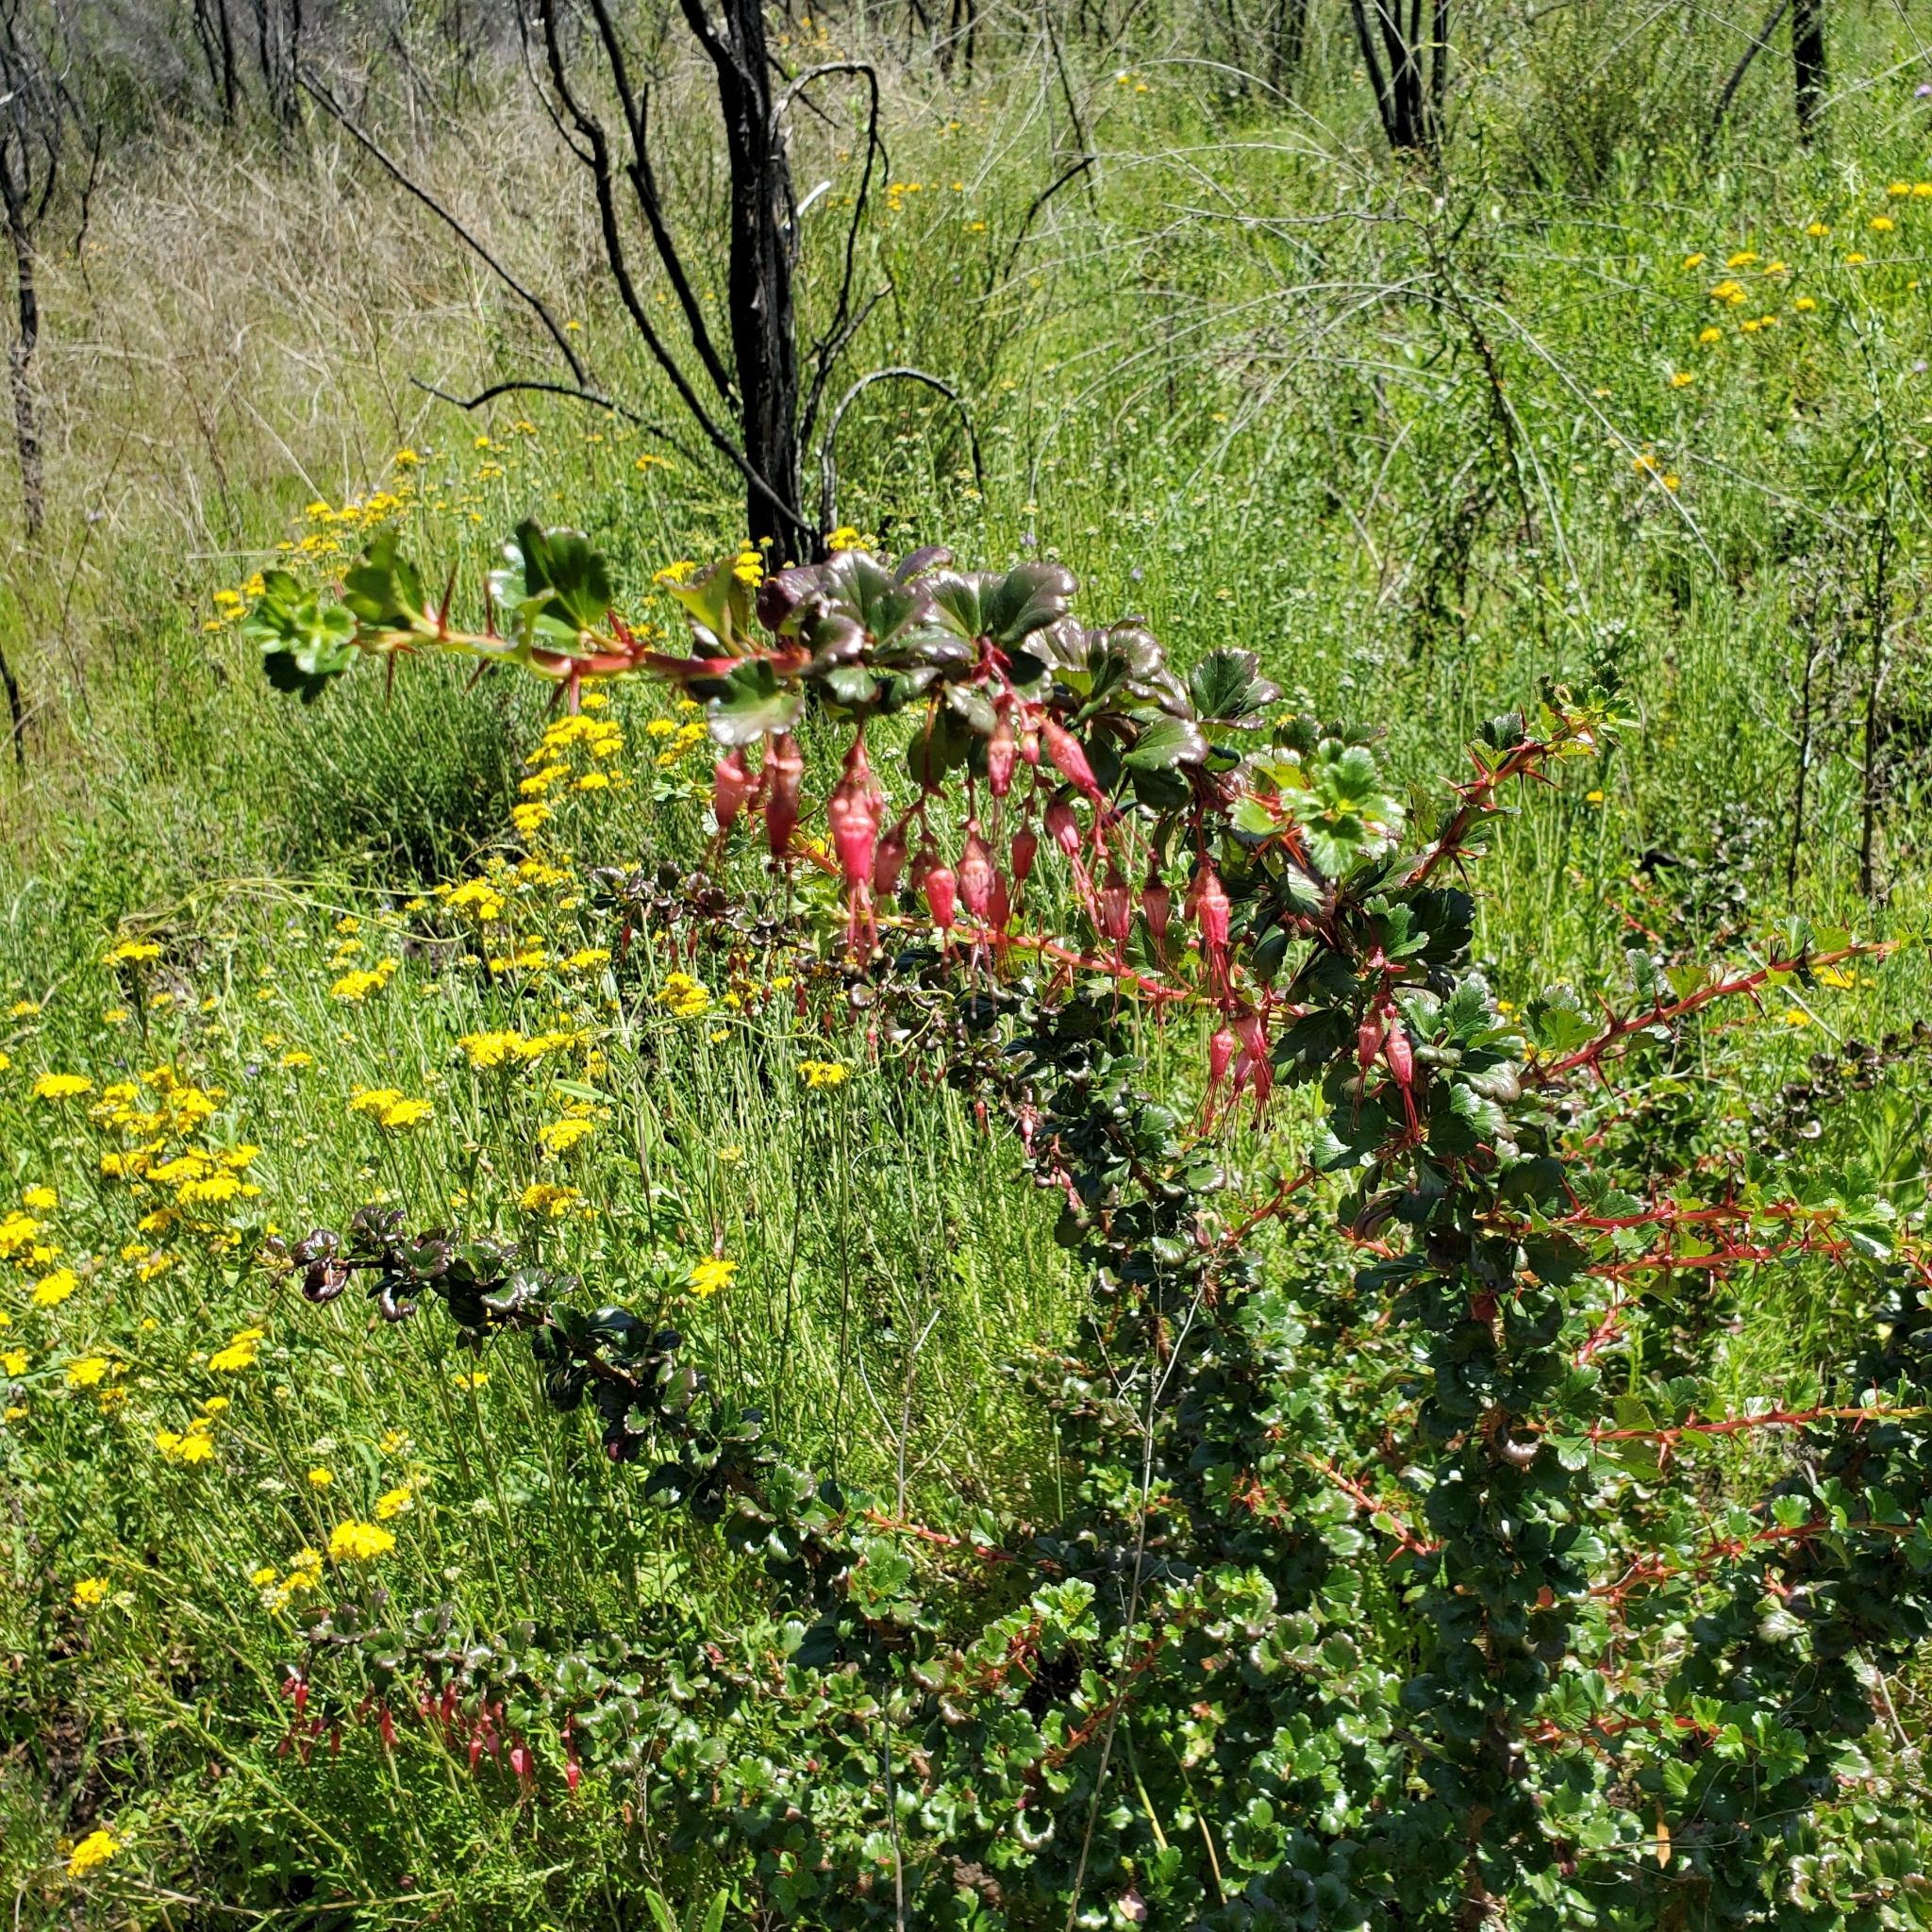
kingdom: Plantae
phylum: Tracheophyta
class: Magnoliopsida
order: Saxifragales
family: Grossulariaceae
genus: Ribes
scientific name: Ribes speciosum
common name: Fuchsia-flower gooseberry
